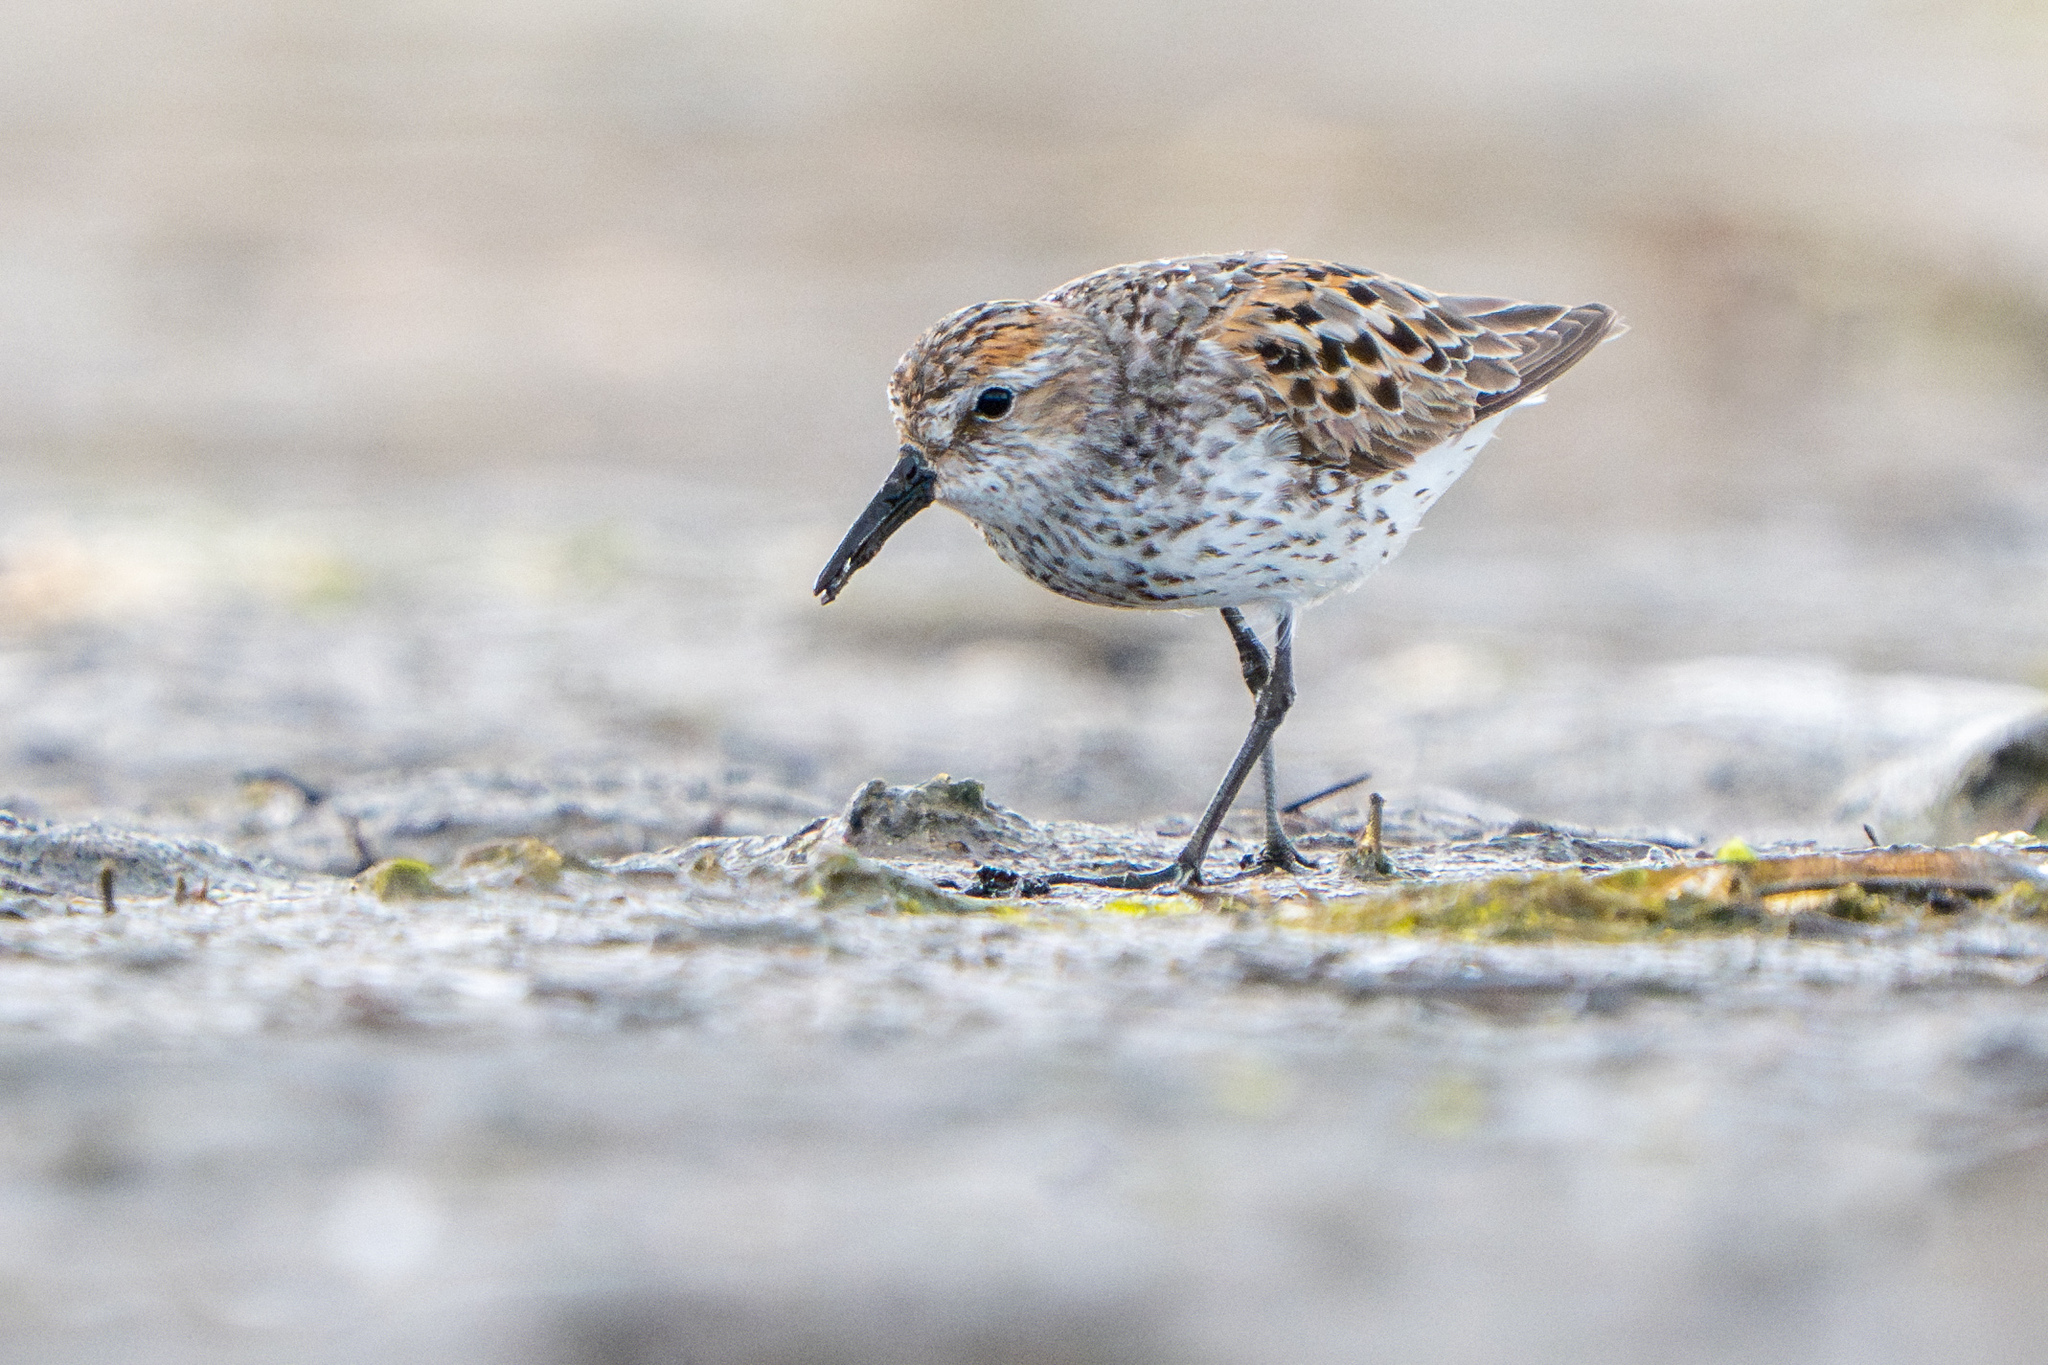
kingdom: Animalia
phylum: Chordata
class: Aves
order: Charadriiformes
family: Scolopacidae
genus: Calidris
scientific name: Calidris mauri
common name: Western sandpiper
